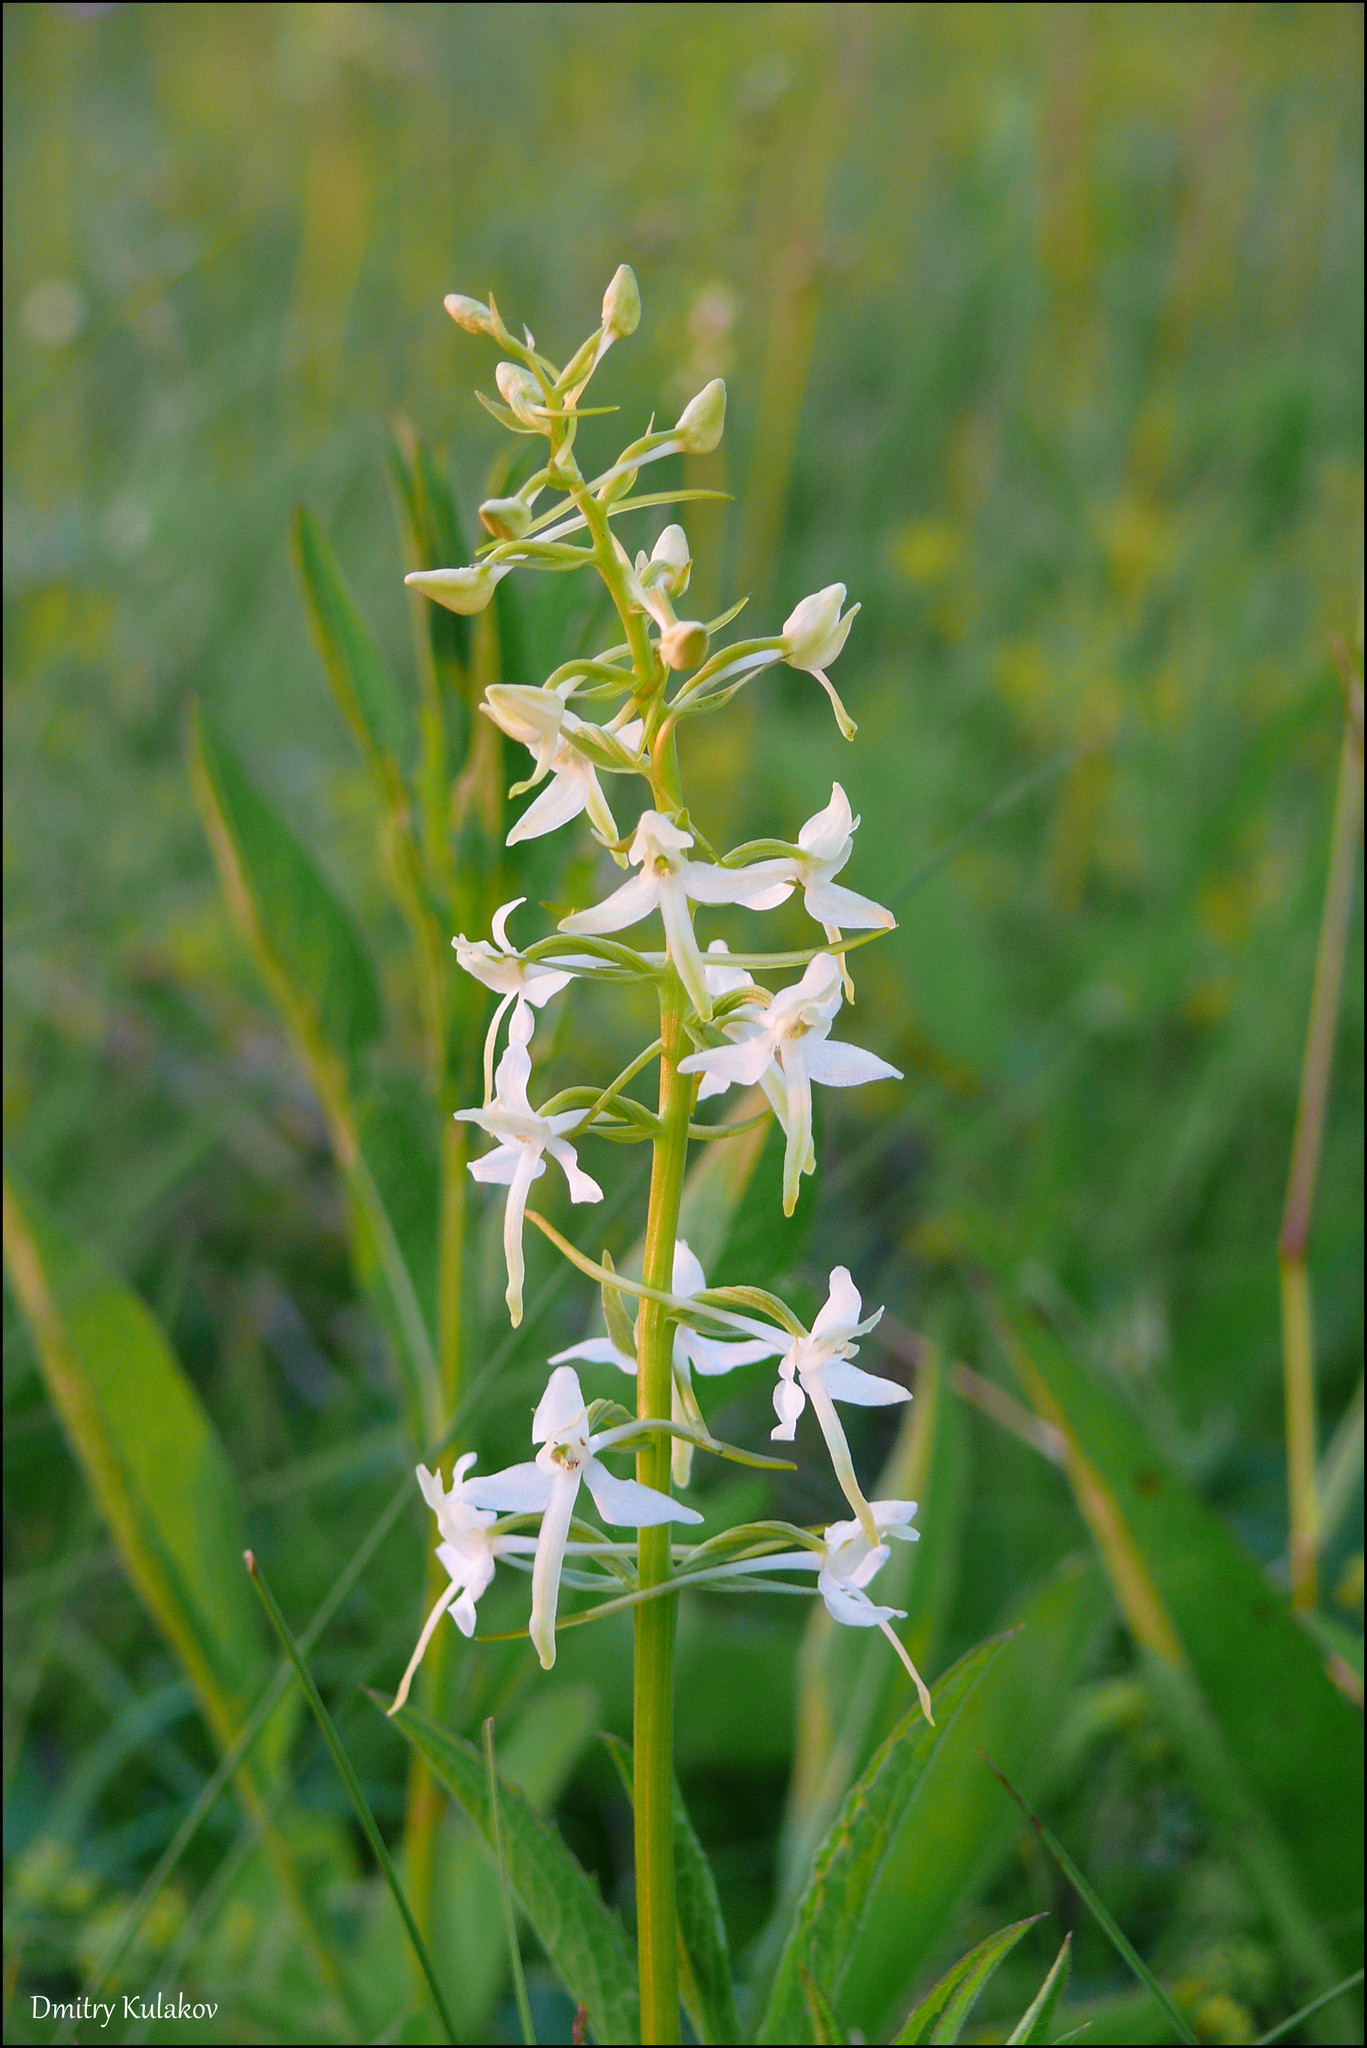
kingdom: Plantae
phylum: Tracheophyta
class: Liliopsida
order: Asparagales
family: Orchidaceae
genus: Platanthera
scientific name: Platanthera bifolia
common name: Lesser butterfly-orchid
